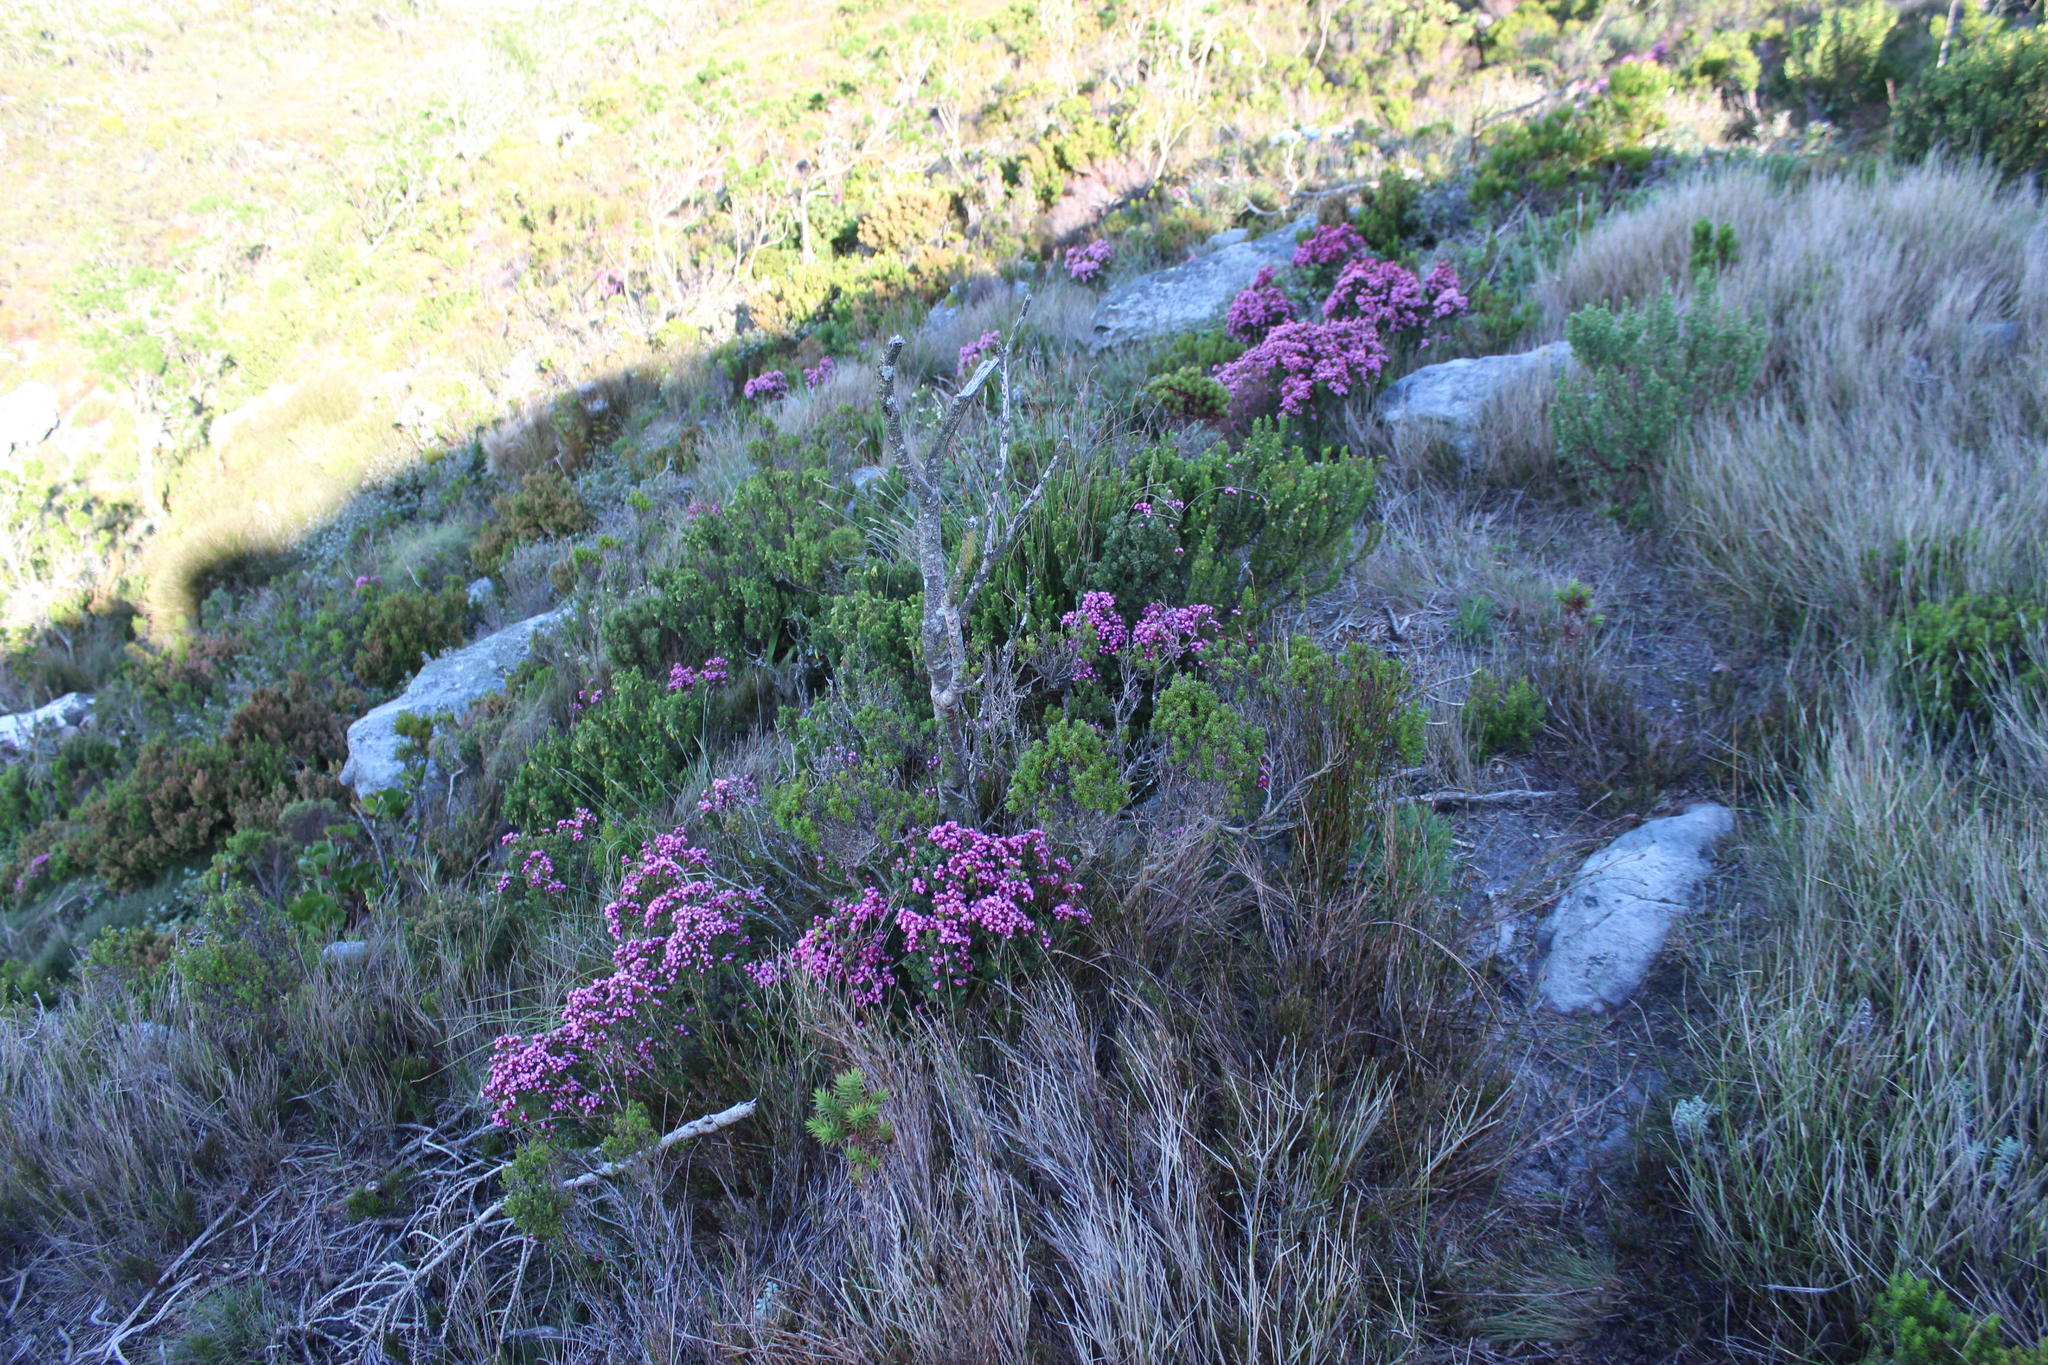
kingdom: Plantae
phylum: Tracheophyta
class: Magnoliopsida
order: Myrtales
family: Penaeaceae
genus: Brachysiphon
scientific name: Brachysiphon fucatus
